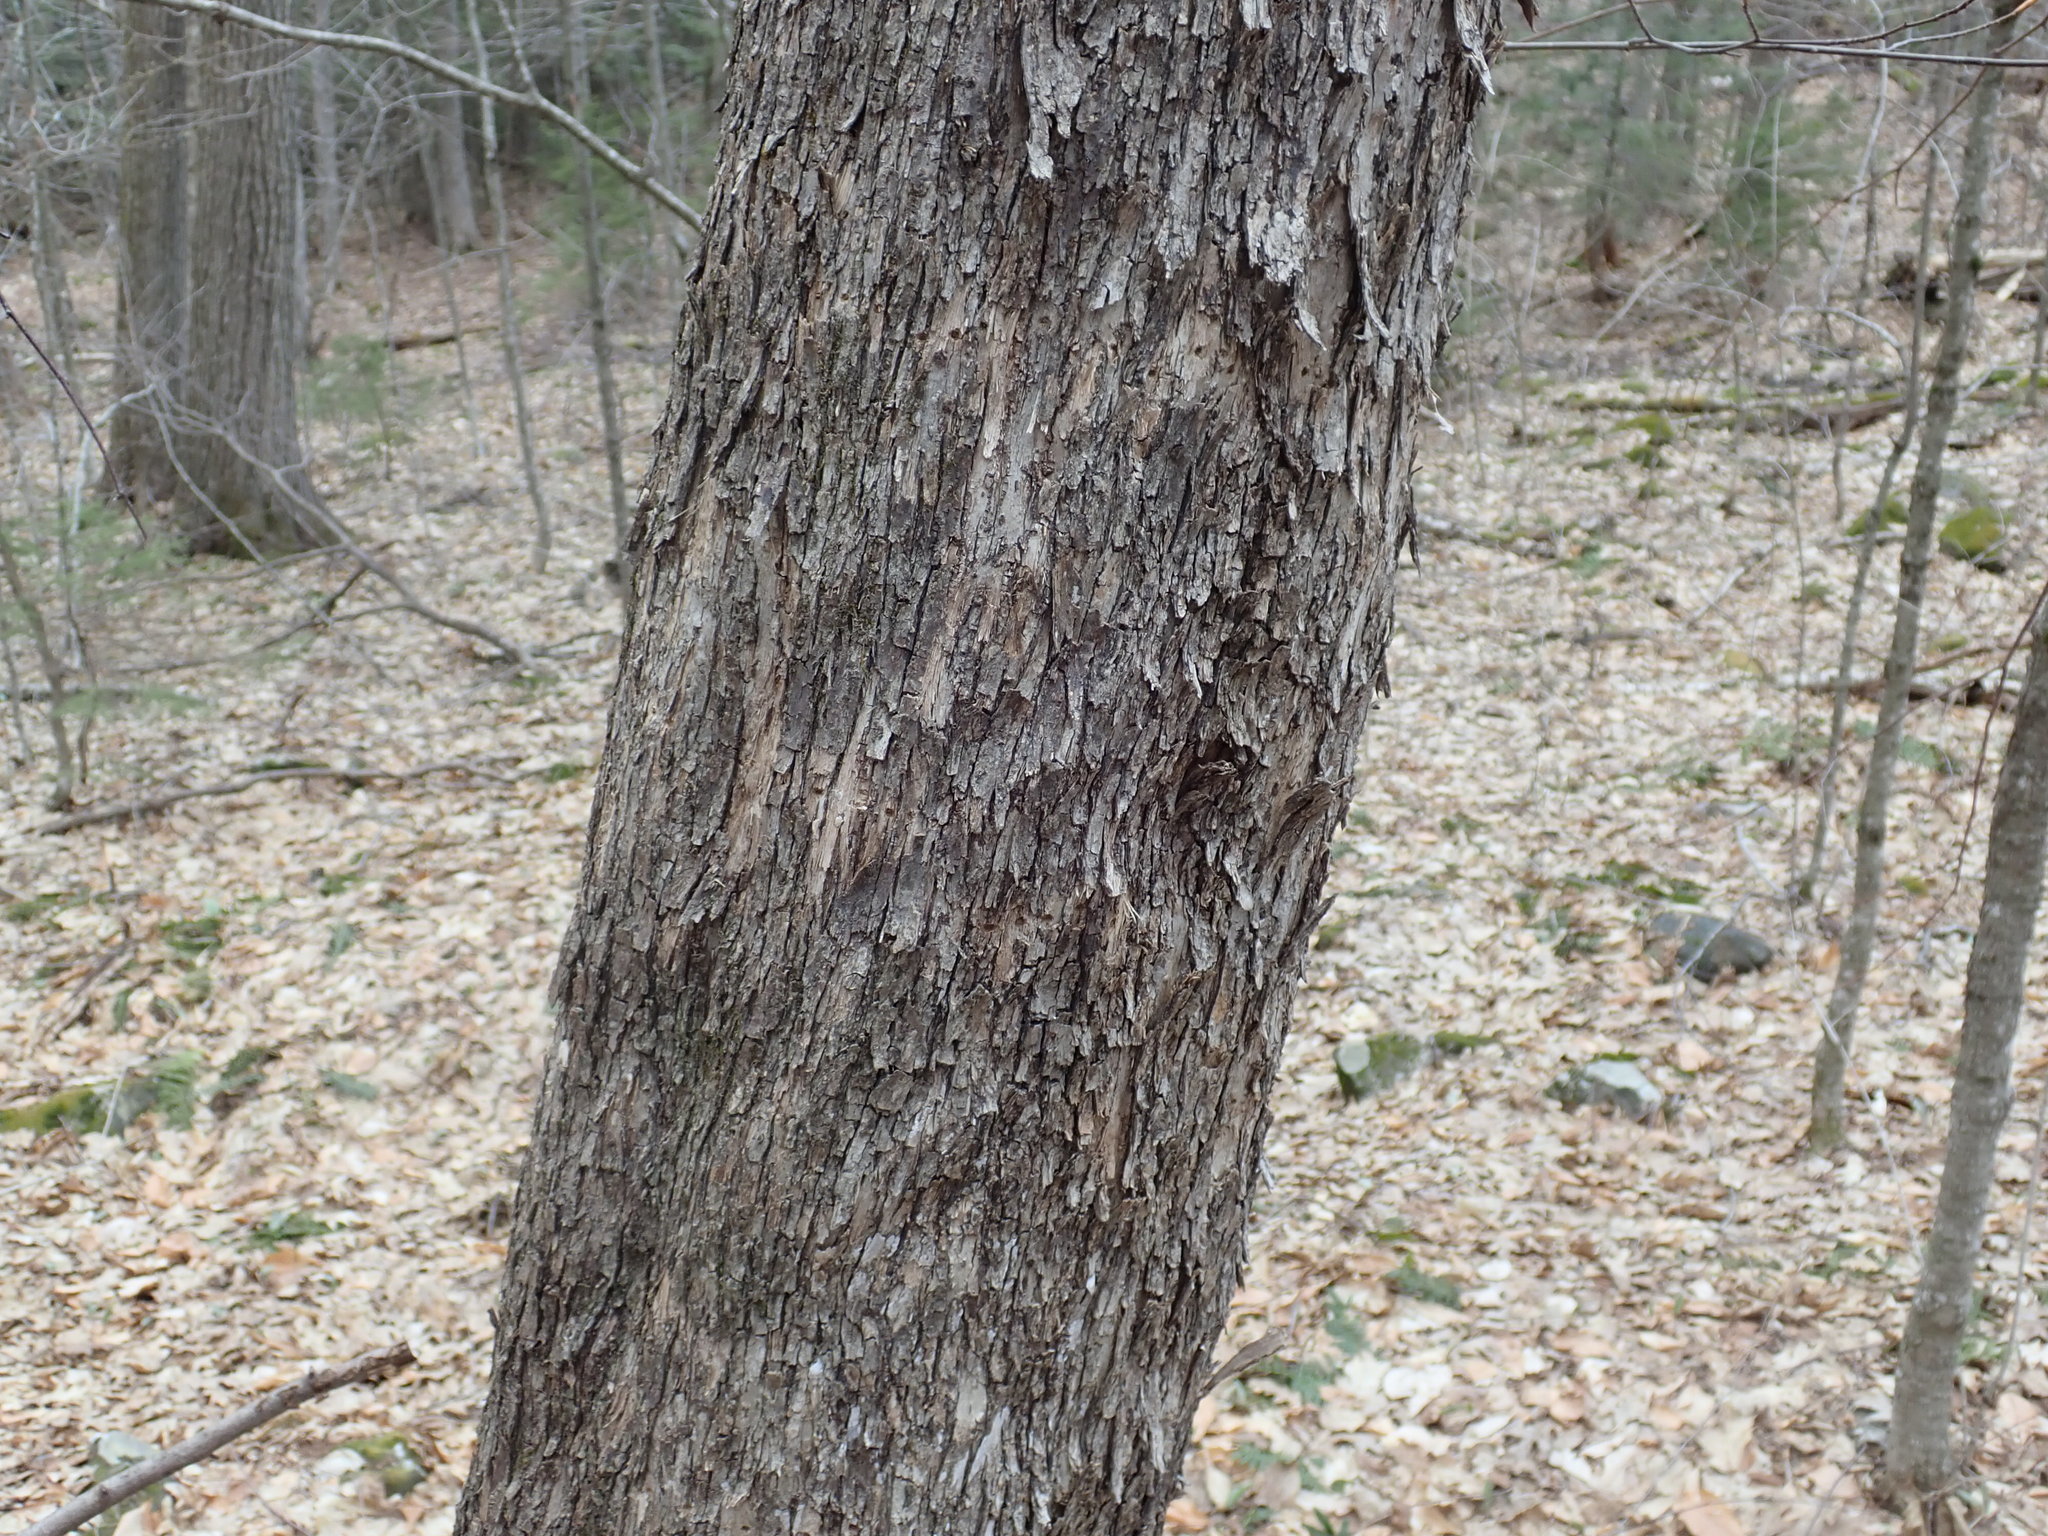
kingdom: Plantae
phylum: Tracheophyta
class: Magnoliopsida
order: Fagales
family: Betulaceae
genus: Ostrya
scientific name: Ostrya virginiana
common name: Ironwood
